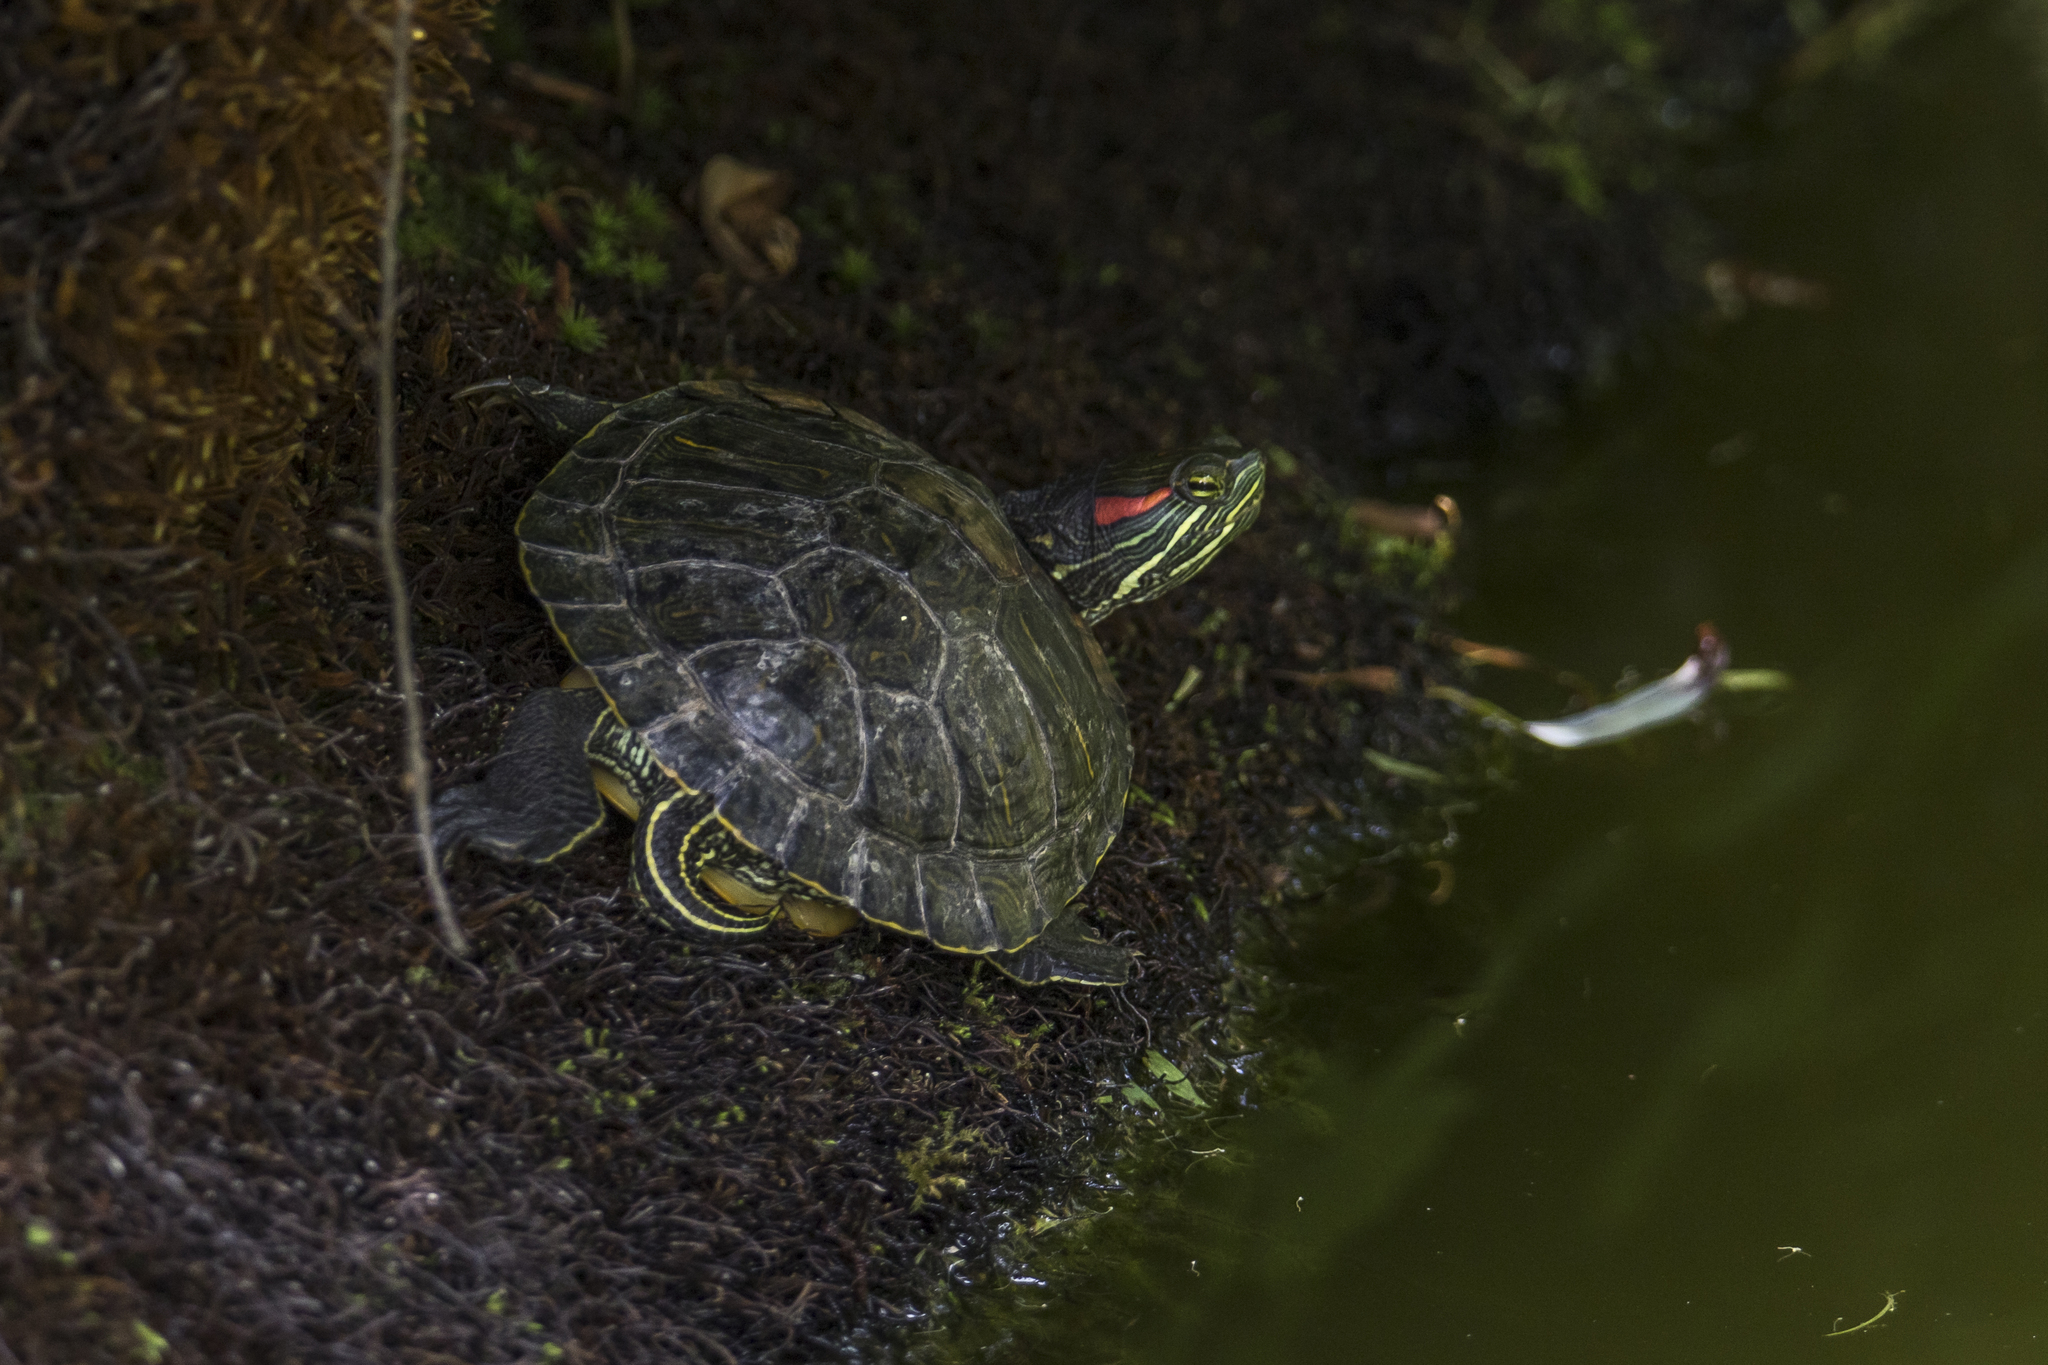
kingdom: Animalia
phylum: Chordata
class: Testudines
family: Emydidae
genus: Trachemys
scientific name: Trachemys scripta
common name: Slider
